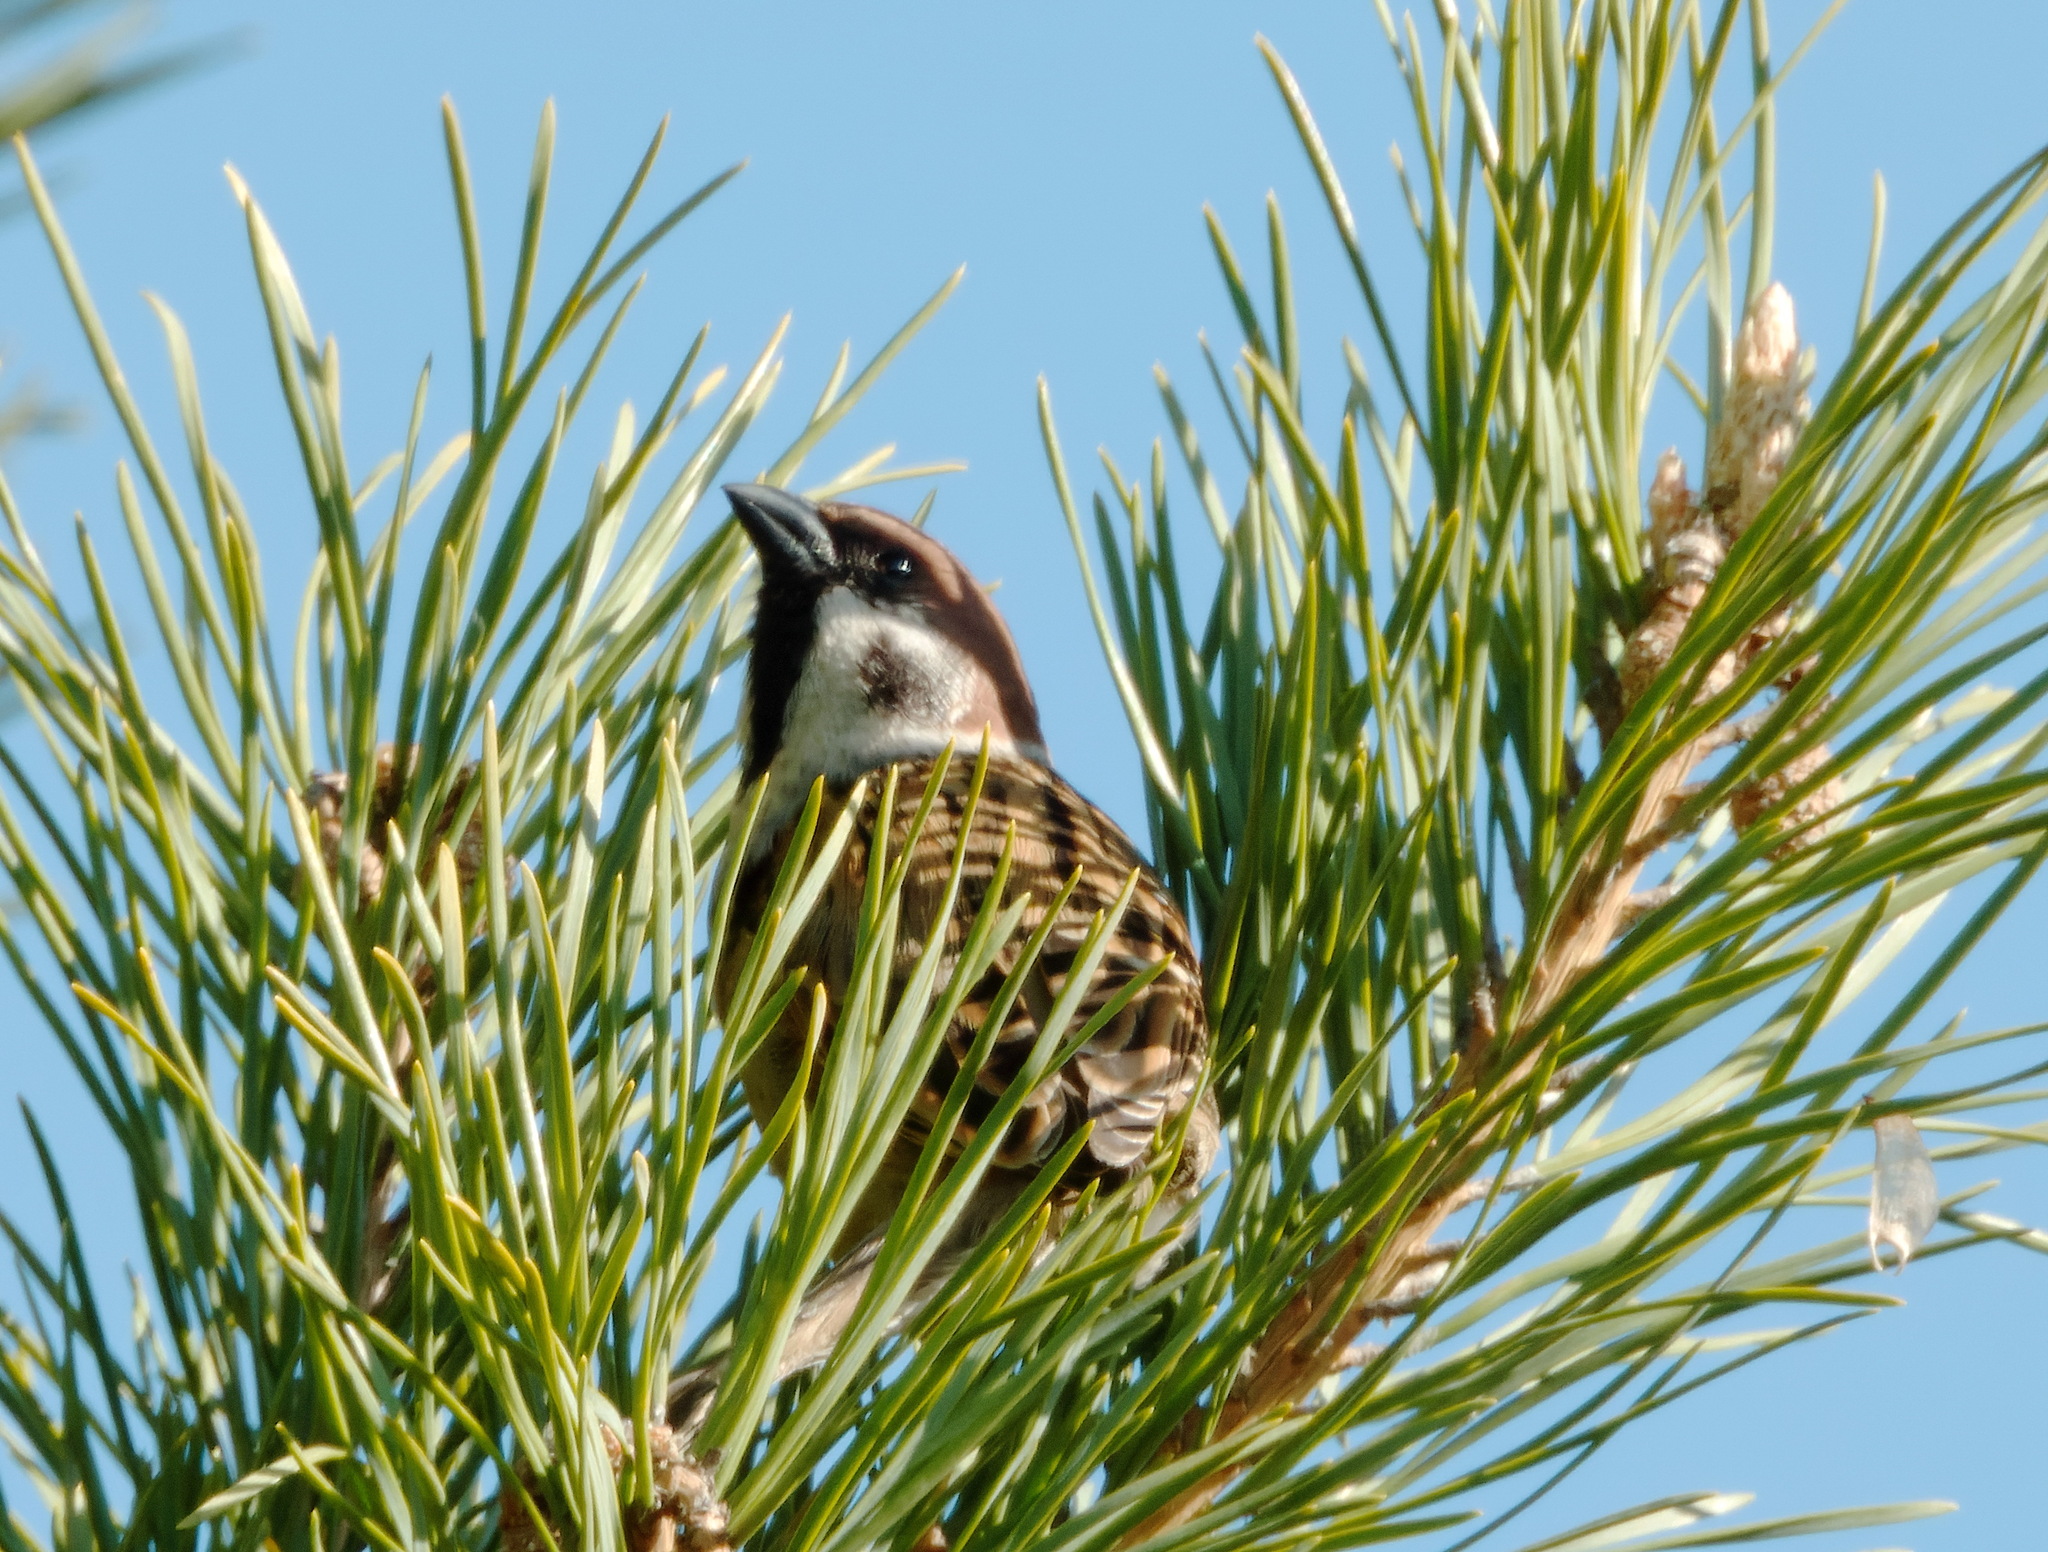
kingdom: Animalia
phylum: Chordata
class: Aves
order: Passeriformes
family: Passeridae
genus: Passer
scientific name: Passer montanus
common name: Eurasian tree sparrow
